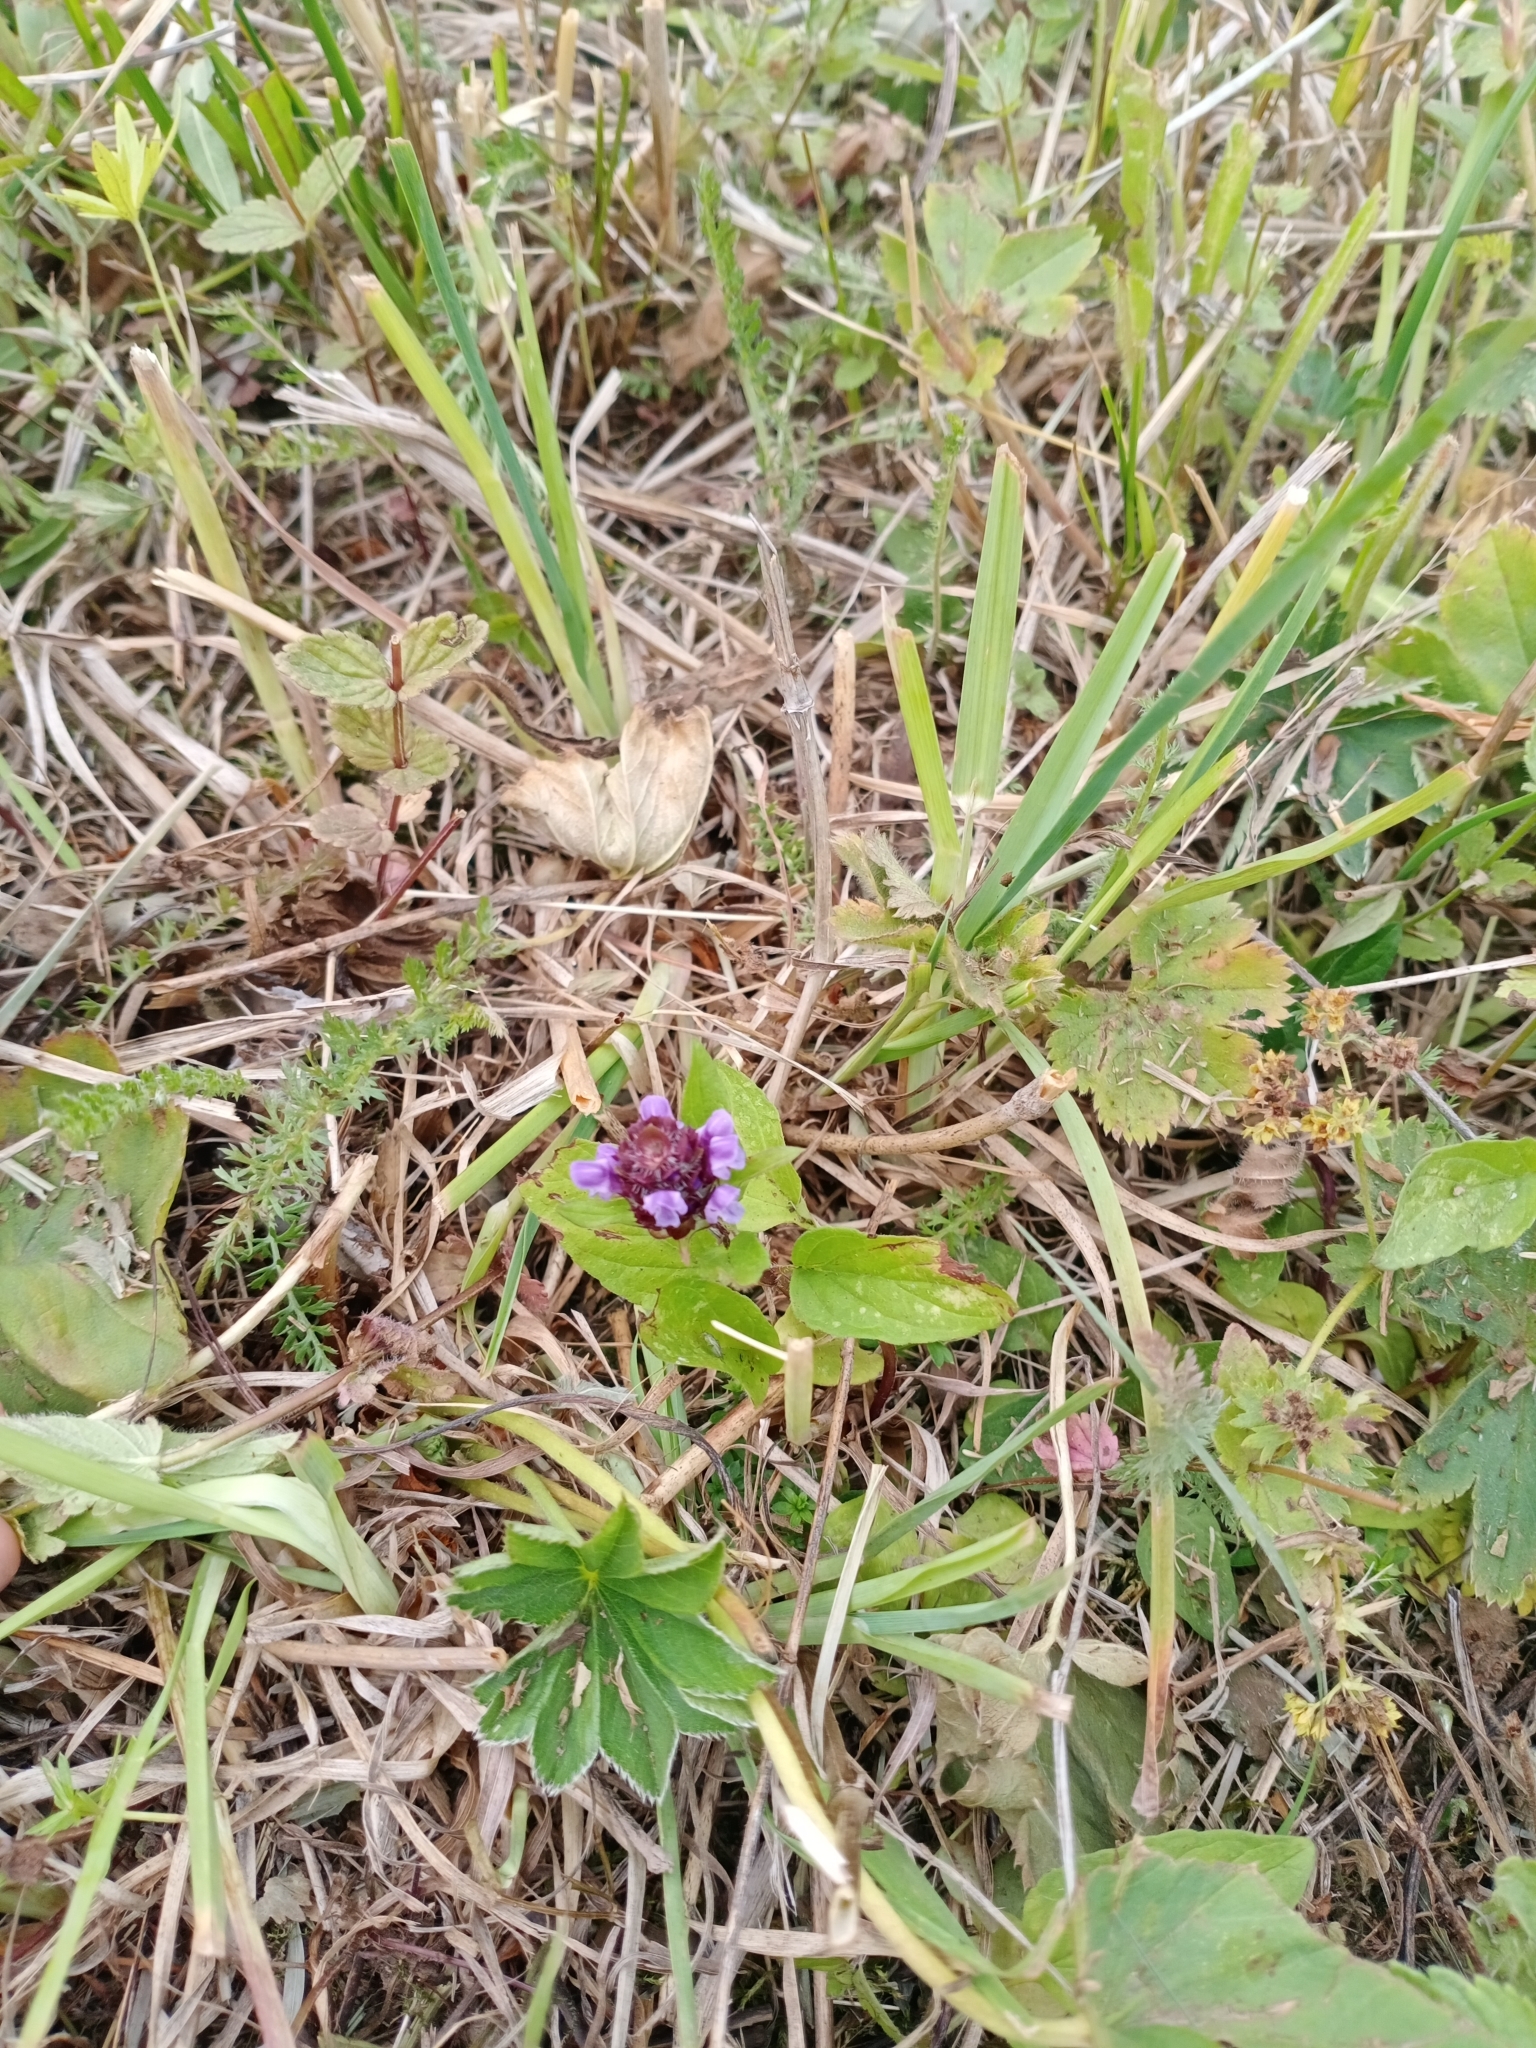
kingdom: Plantae
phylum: Tracheophyta
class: Magnoliopsida
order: Lamiales
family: Lamiaceae
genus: Prunella
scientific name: Prunella vulgaris
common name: Heal-all
